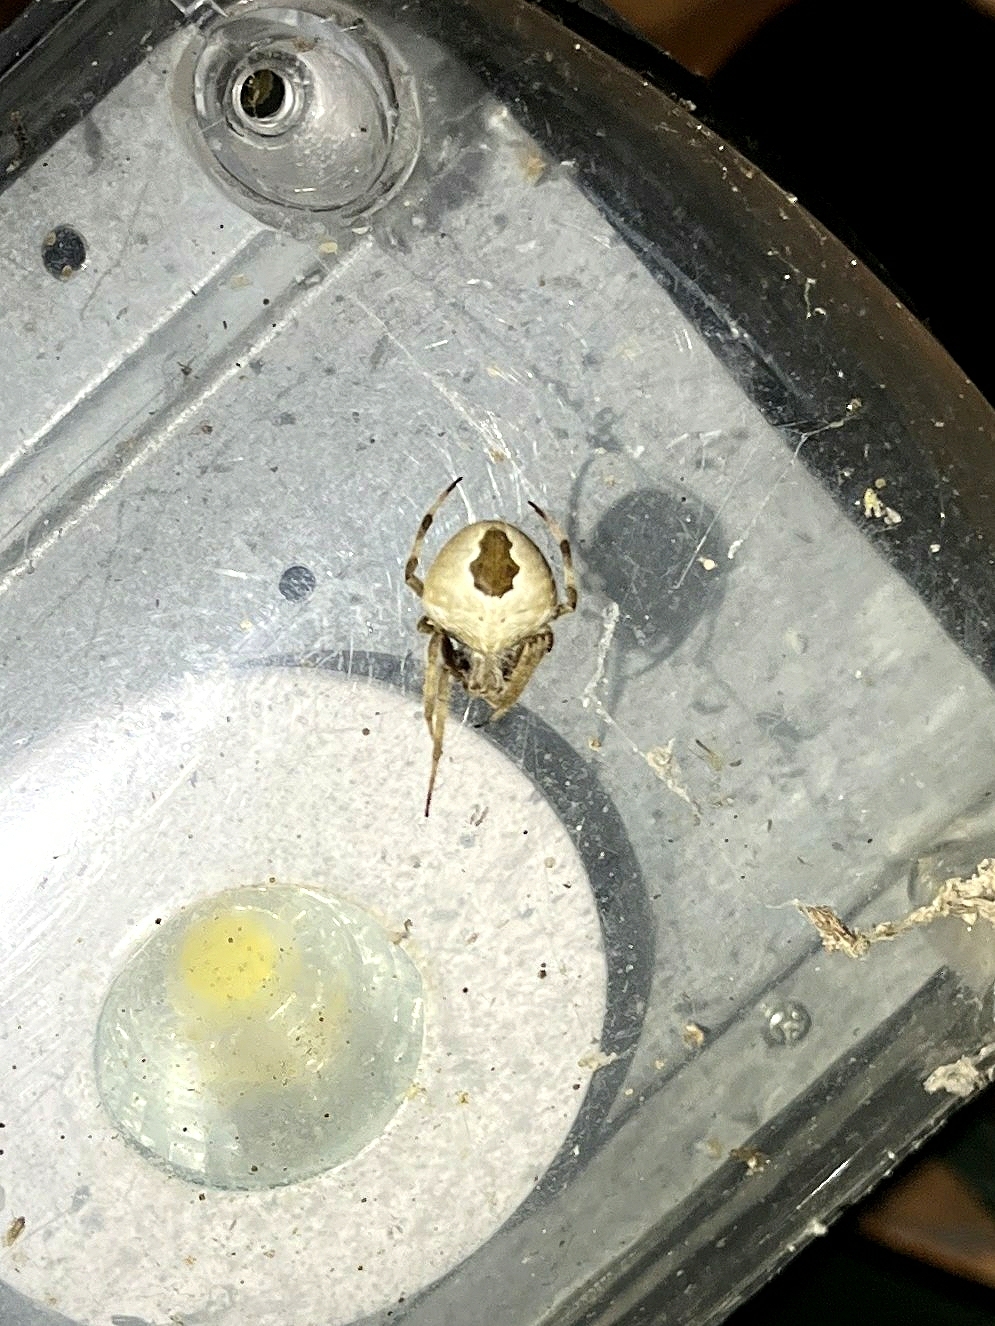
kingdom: Animalia
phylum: Arthropoda
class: Arachnida
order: Araneae
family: Araneidae
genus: Neoscona
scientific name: Neoscona scylla
